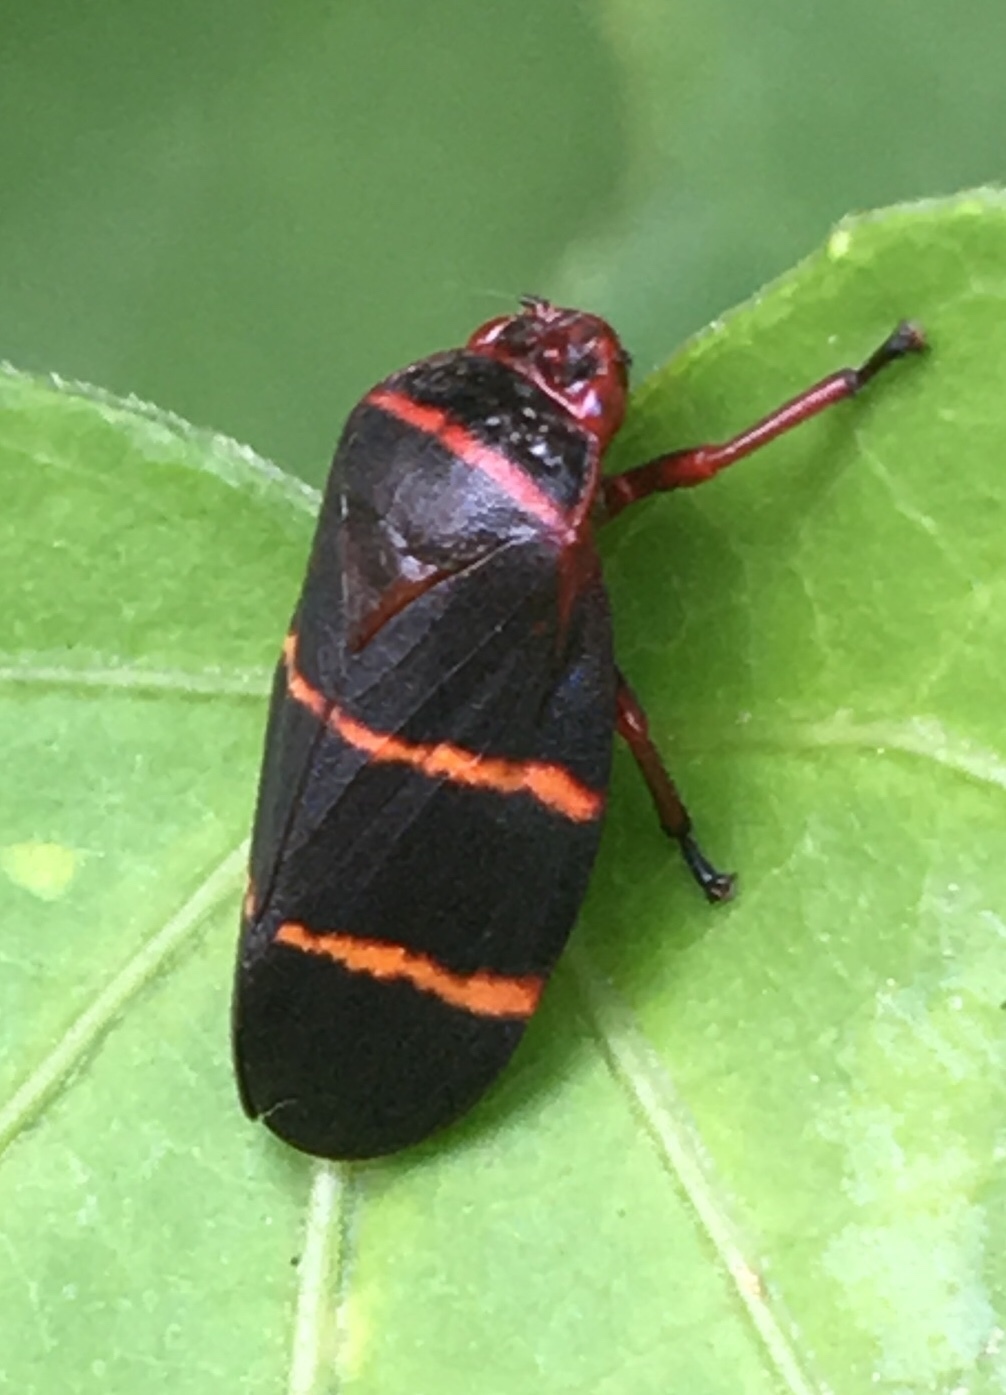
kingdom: Animalia
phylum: Arthropoda
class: Insecta
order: Hemiptera
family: Cercopidae
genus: Prosapia
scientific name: Prosapia bicincta
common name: Twolined spittlebug
